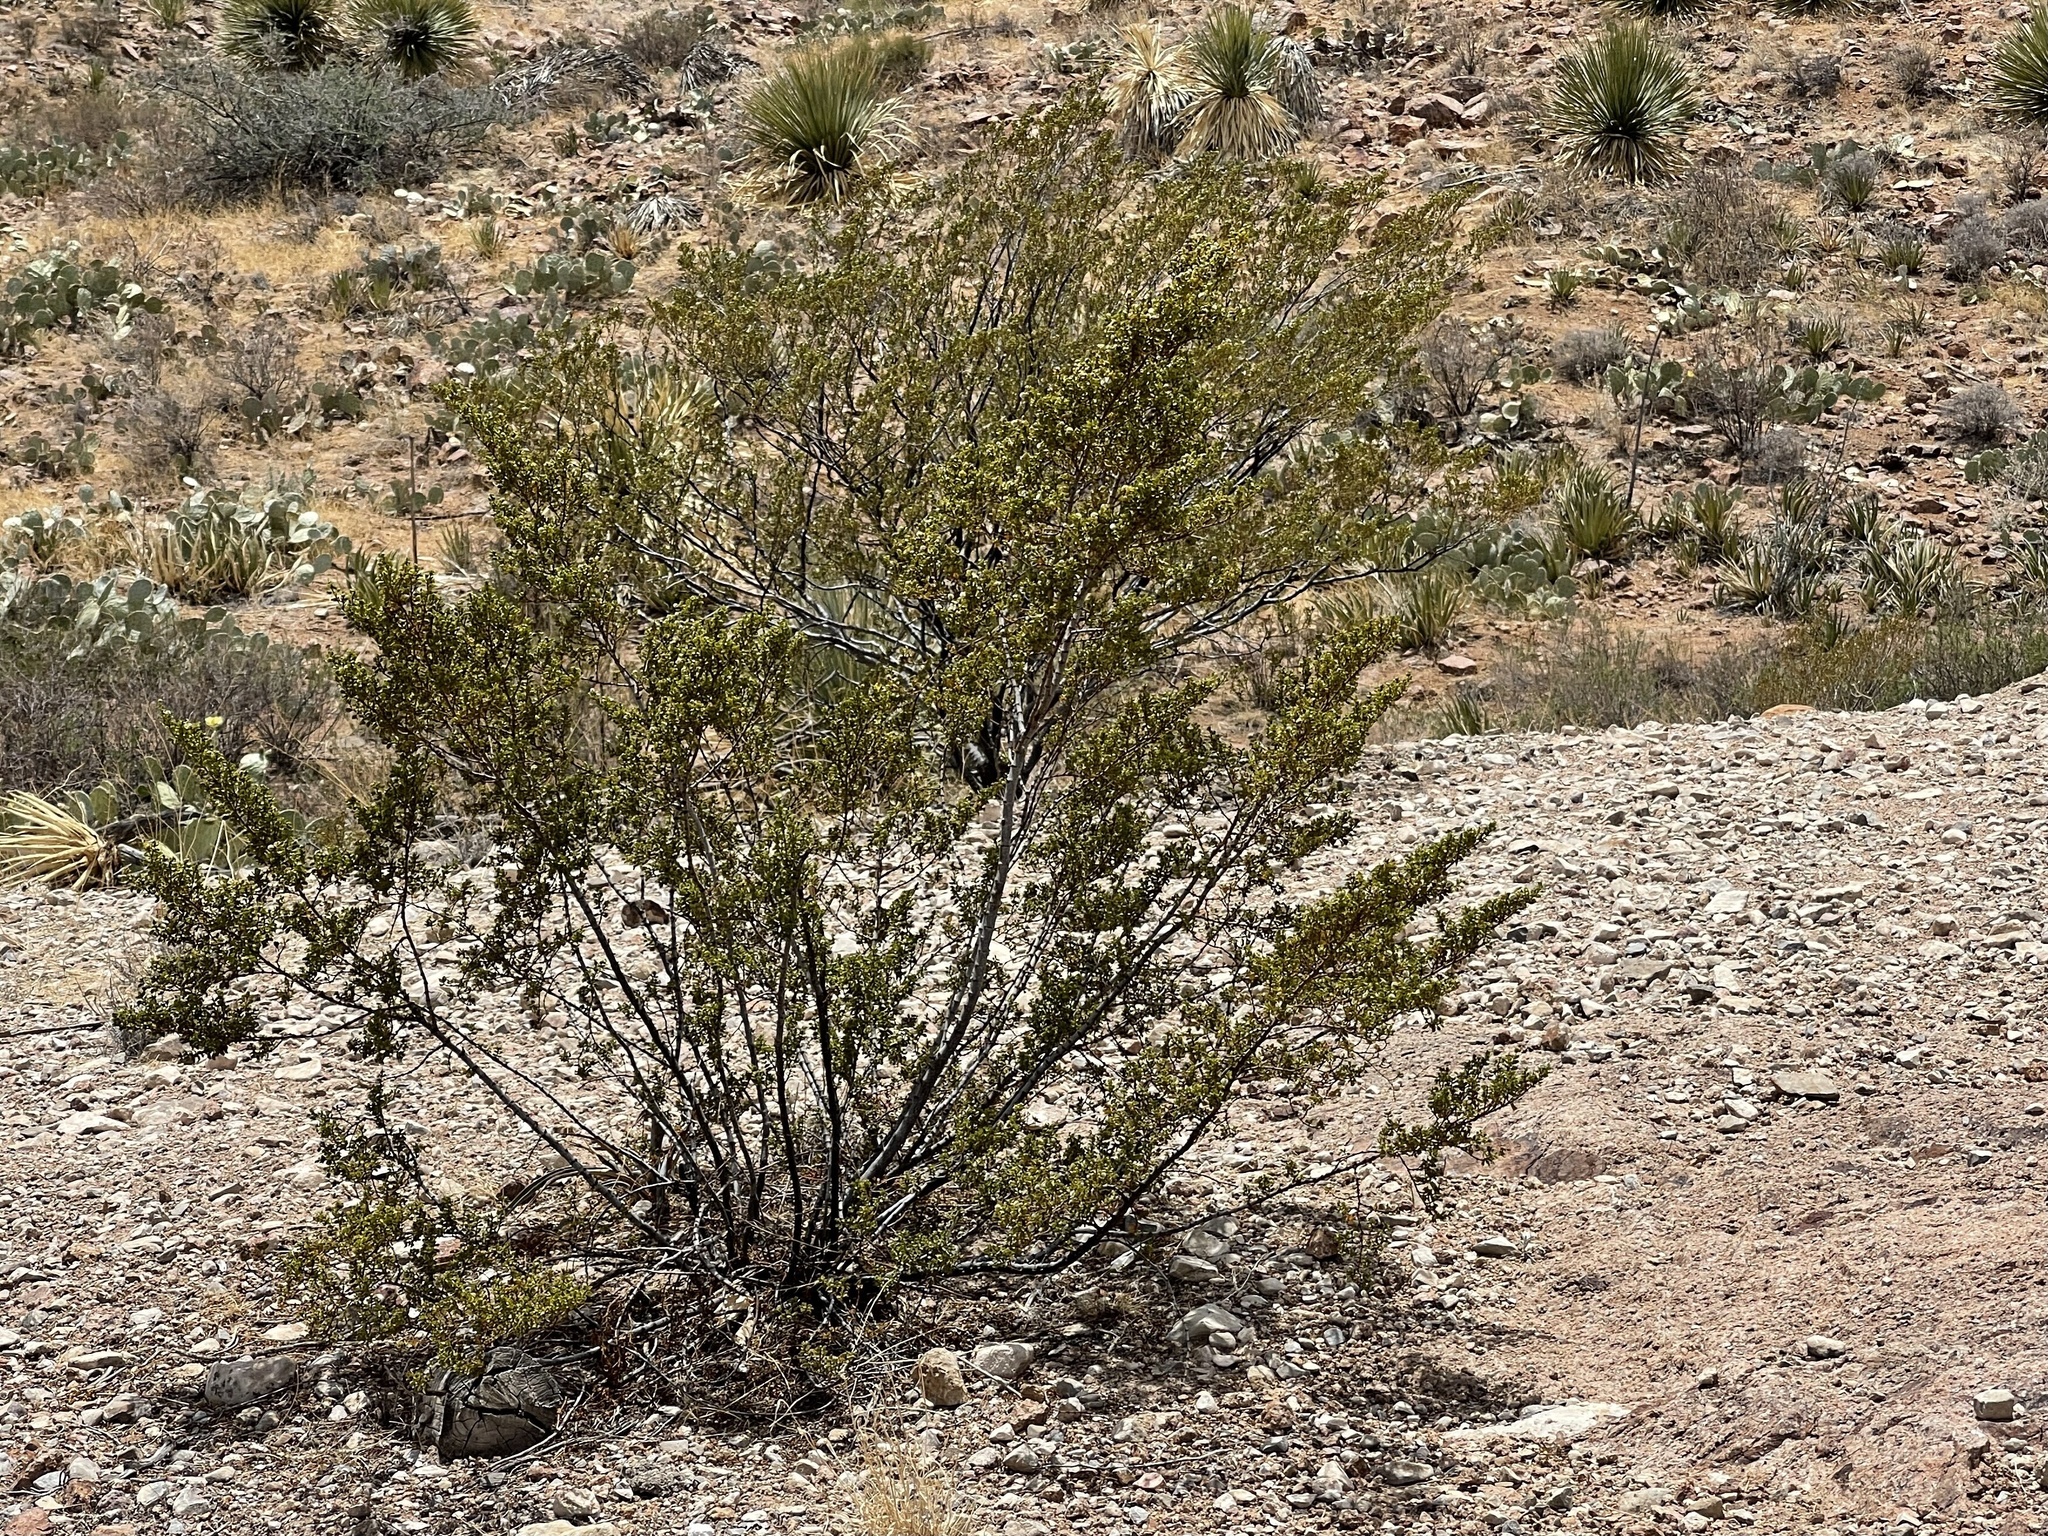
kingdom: Plantae
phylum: Tracheophyta
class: Magnoliopsida
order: Zygophyllales
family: Zygophyllaceae
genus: Larrea
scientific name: Larrea tridentata
